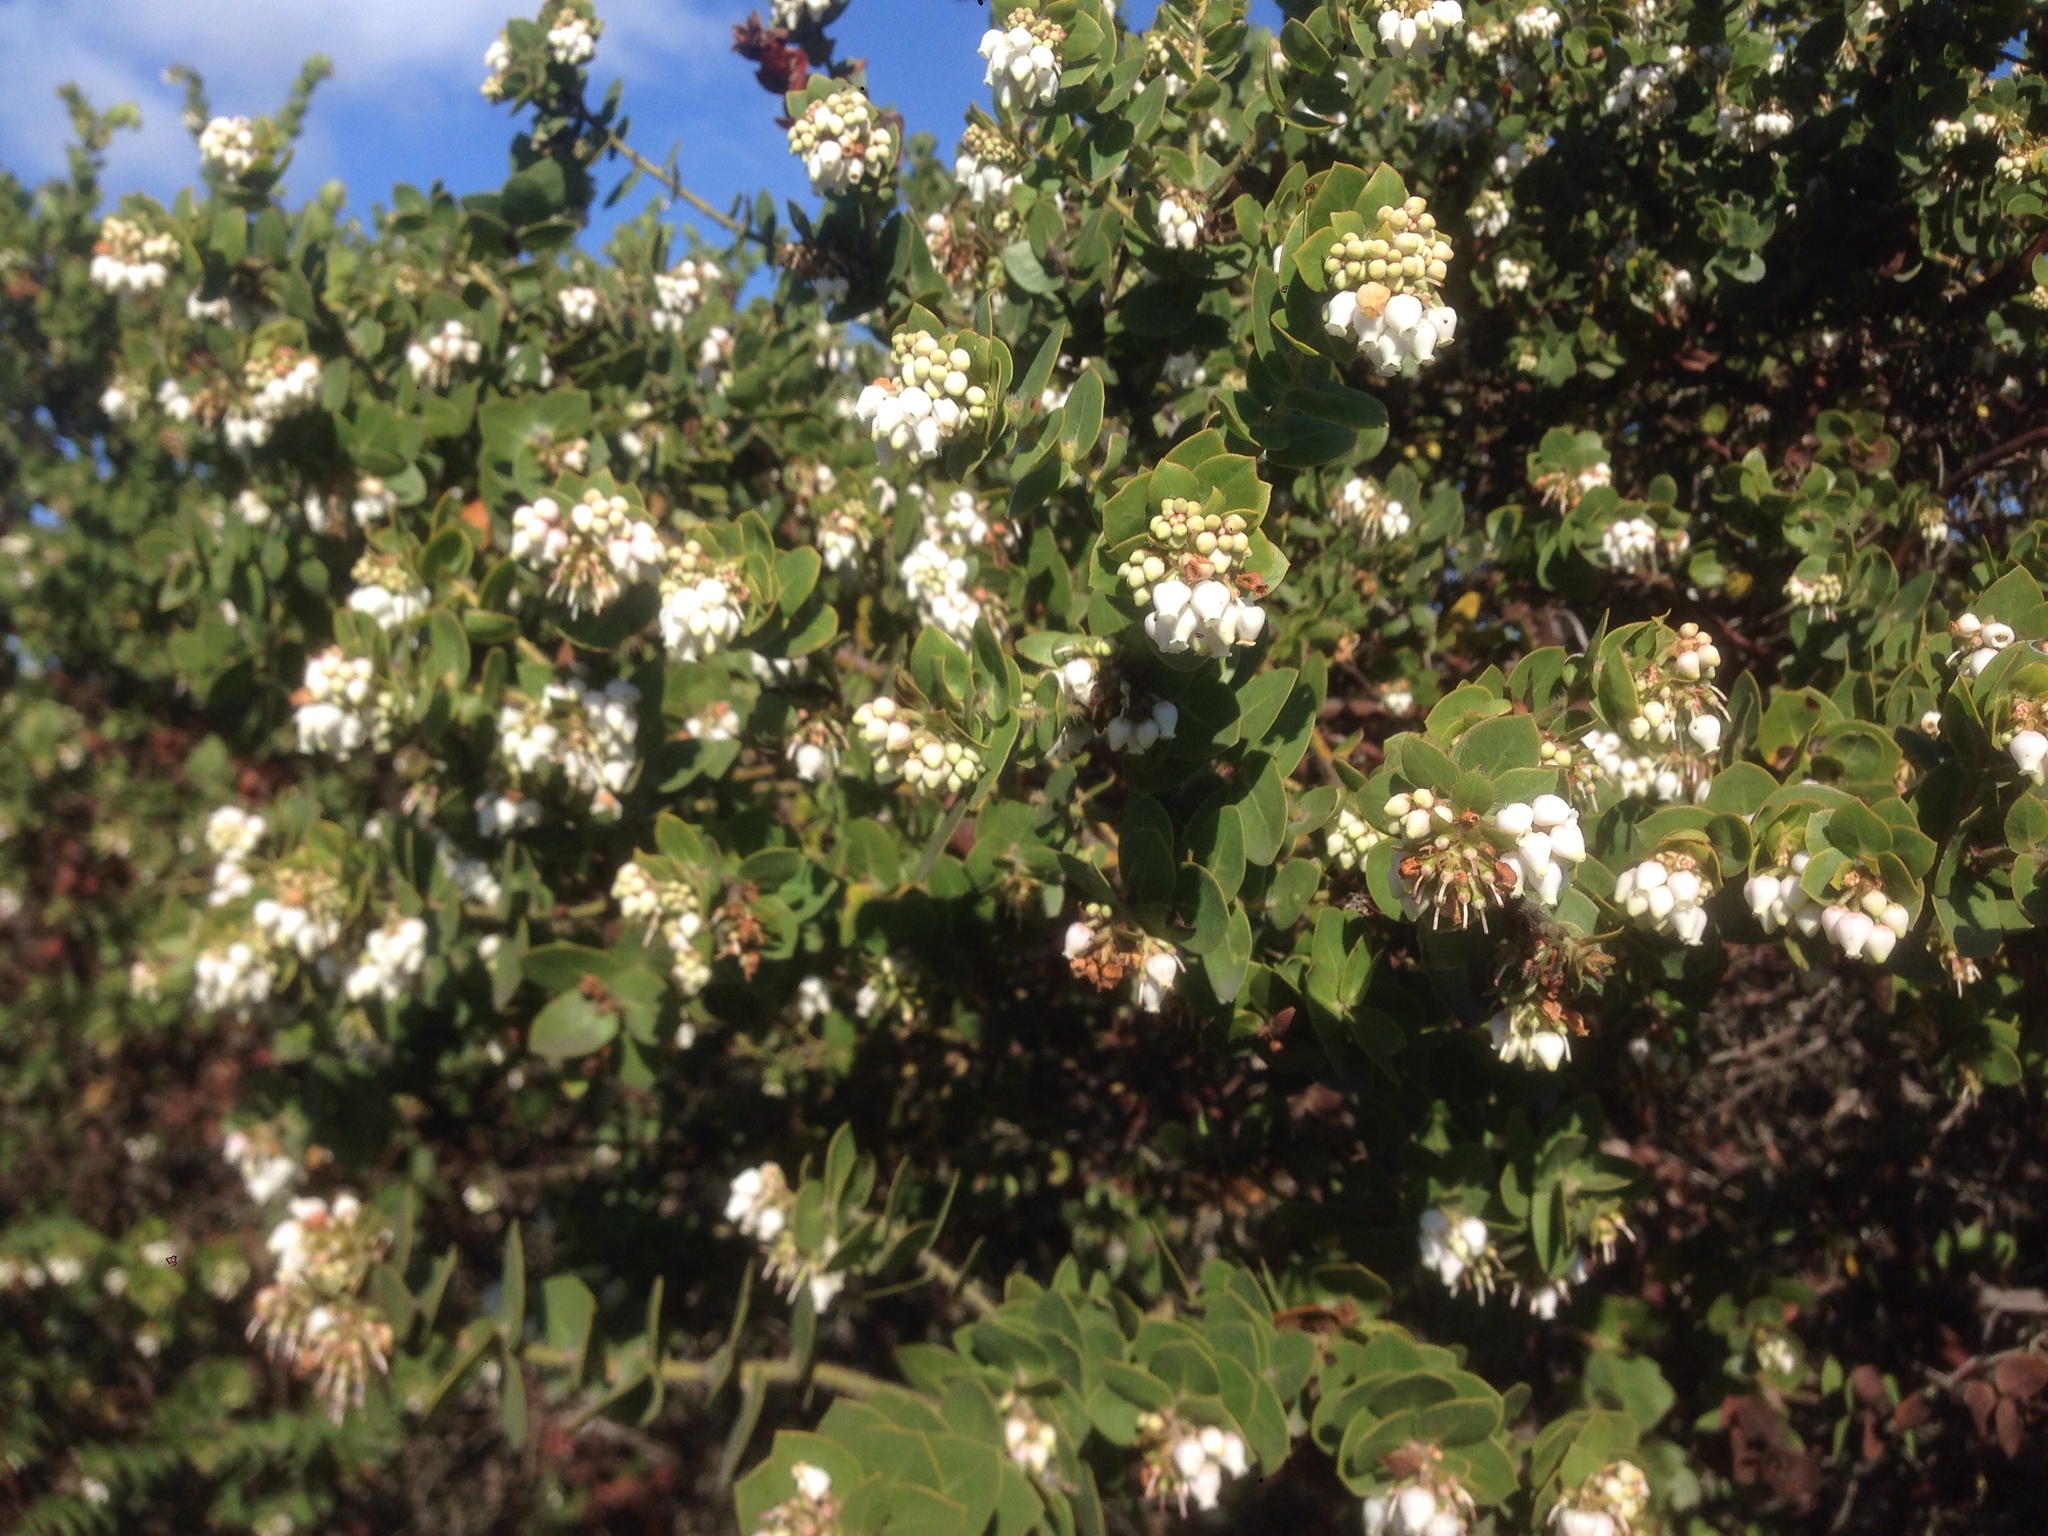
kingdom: Plantae
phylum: Tracheophyta
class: Magnoliopsida
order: Ericales
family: Ericaceae
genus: Arctostaphylos
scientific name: Arctostaphylos purissima
